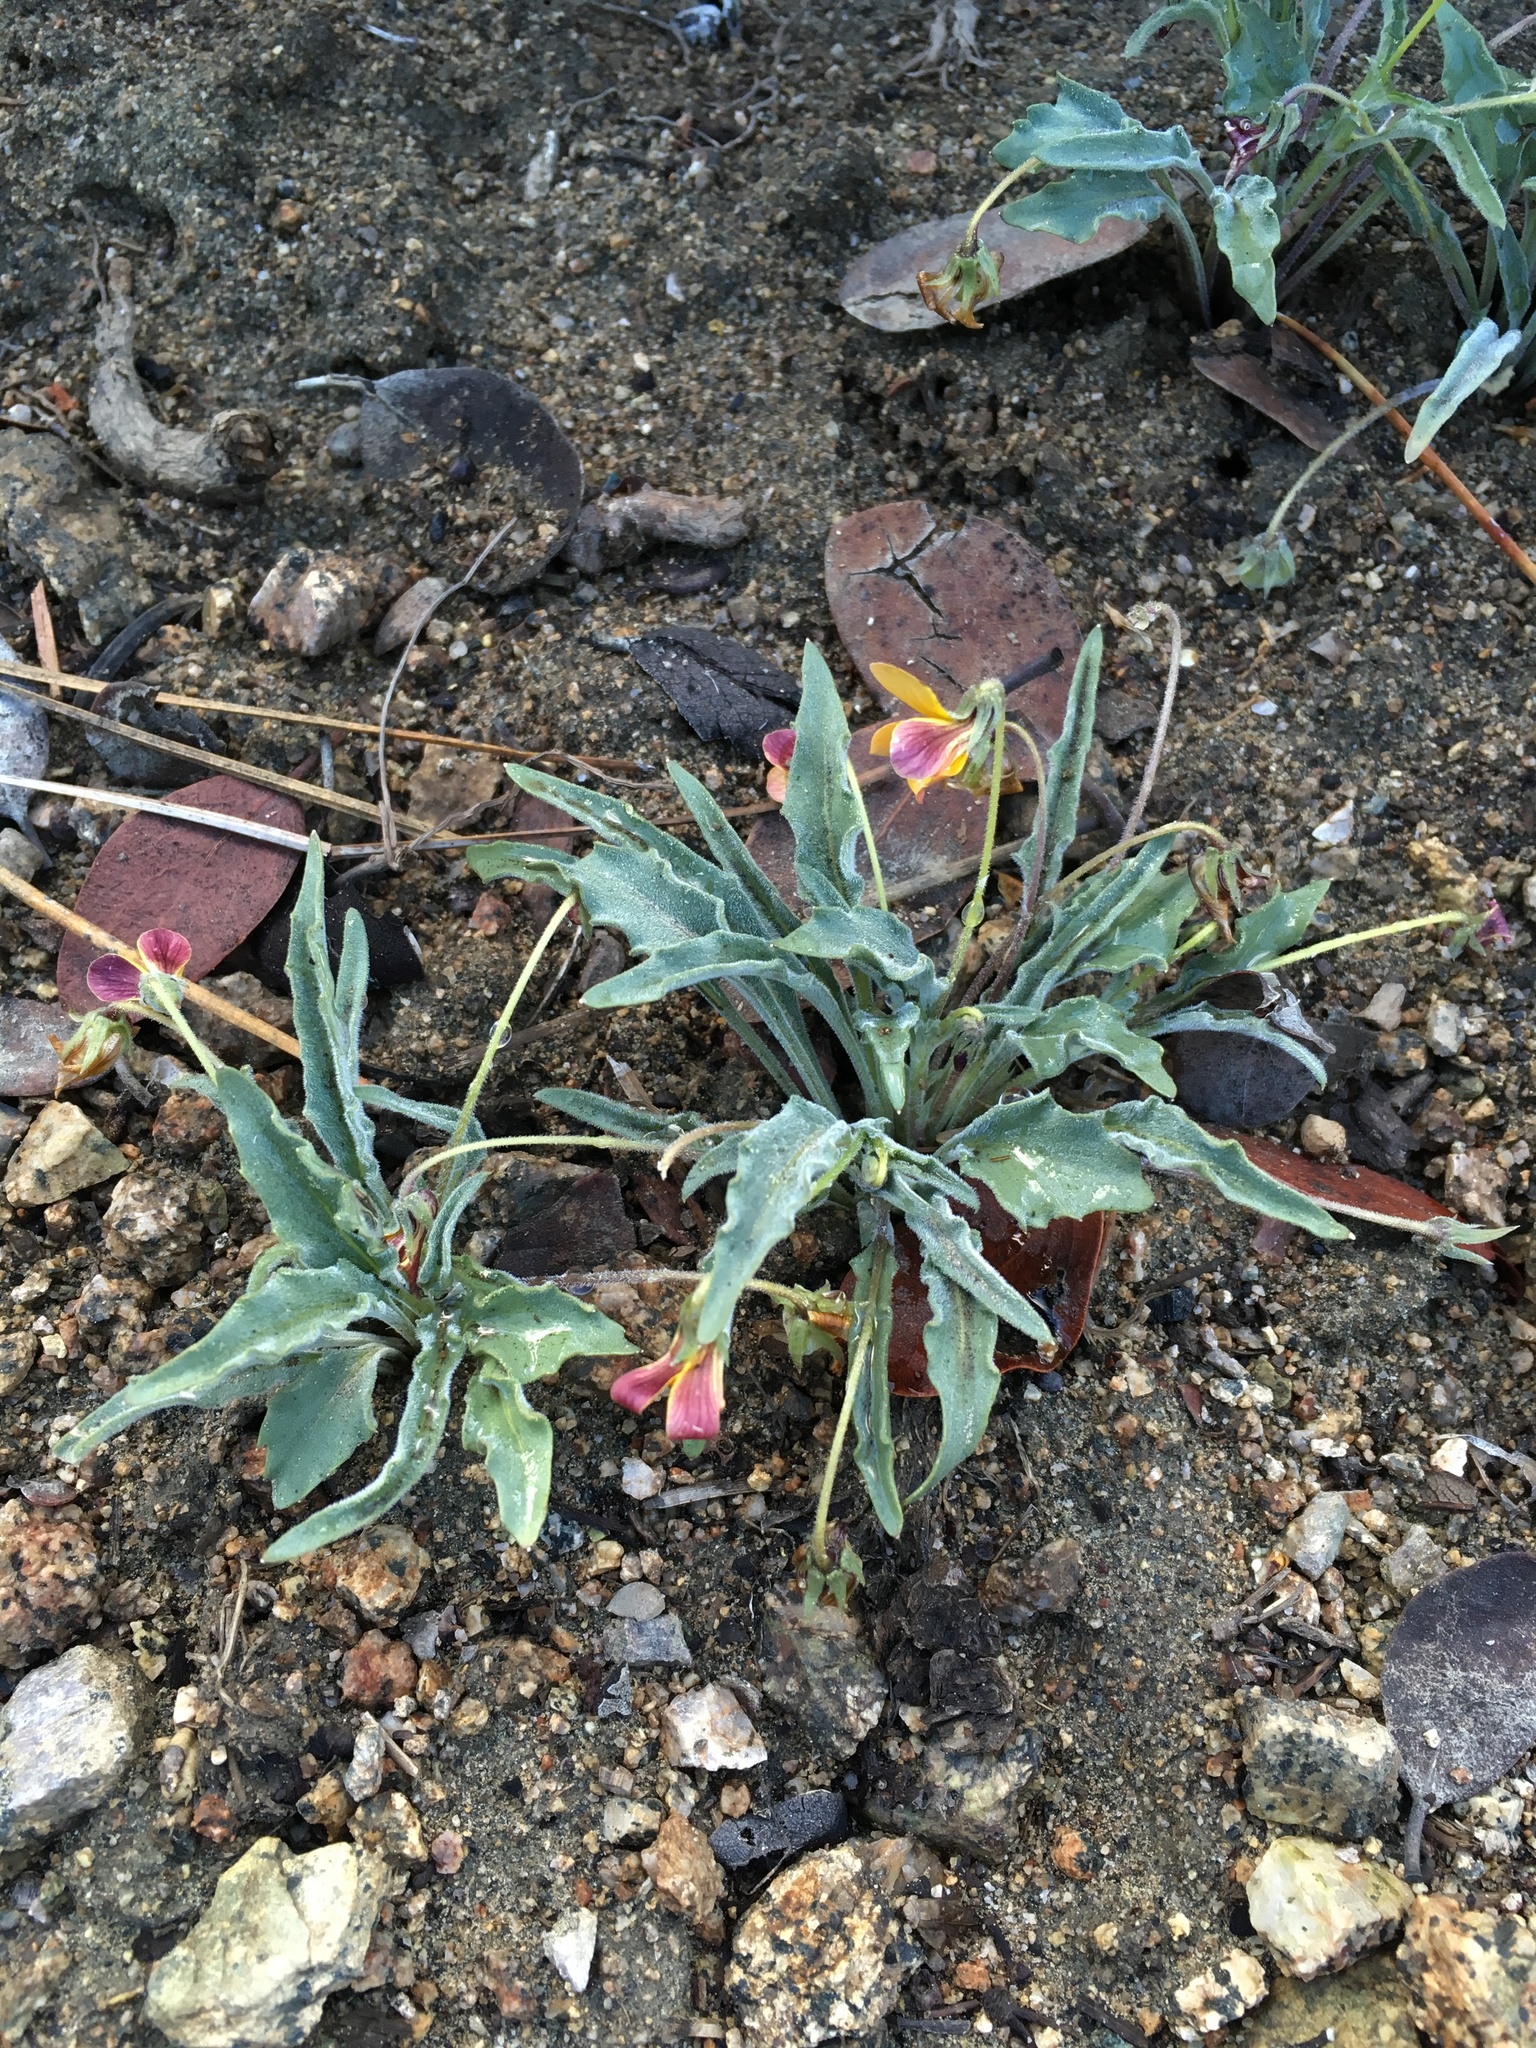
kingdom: Plantae
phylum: Tracheophyta
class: Magnoliopsida
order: Malpighiales
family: Violaceae
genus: Viola
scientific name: Viola pinetorum
